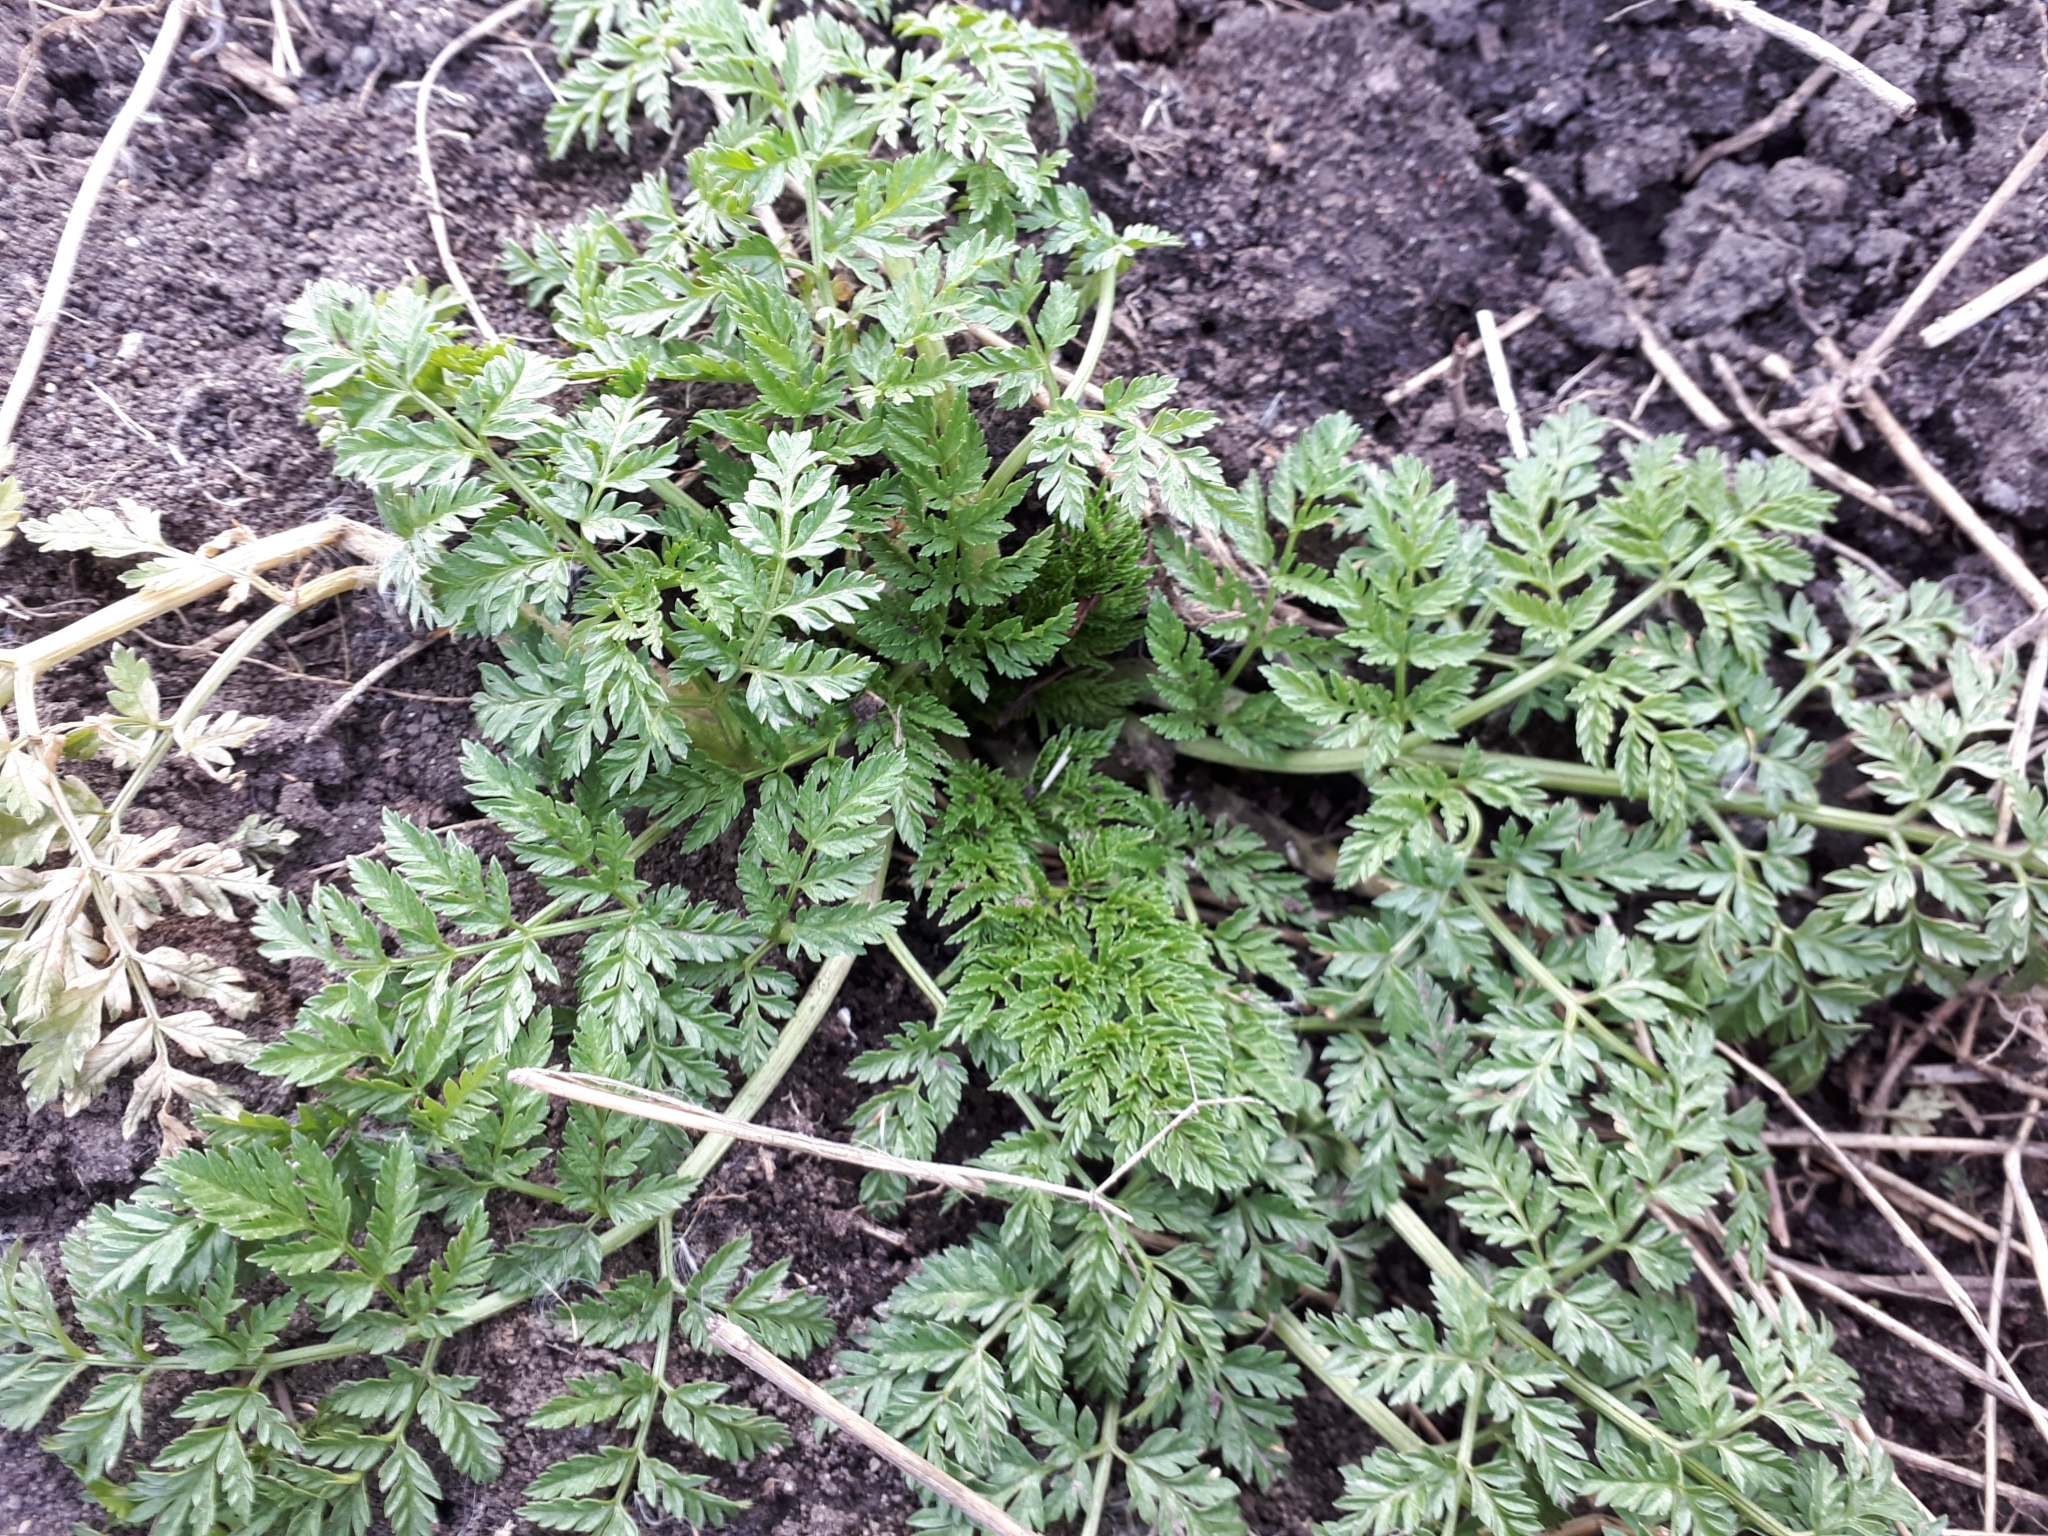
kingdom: Plantae
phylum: Tracheophyta
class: Magnoliopsida
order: Apiales
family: Apiaceae
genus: Anthriscus
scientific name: Anthriscus sylvestris
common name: Cow parsley
